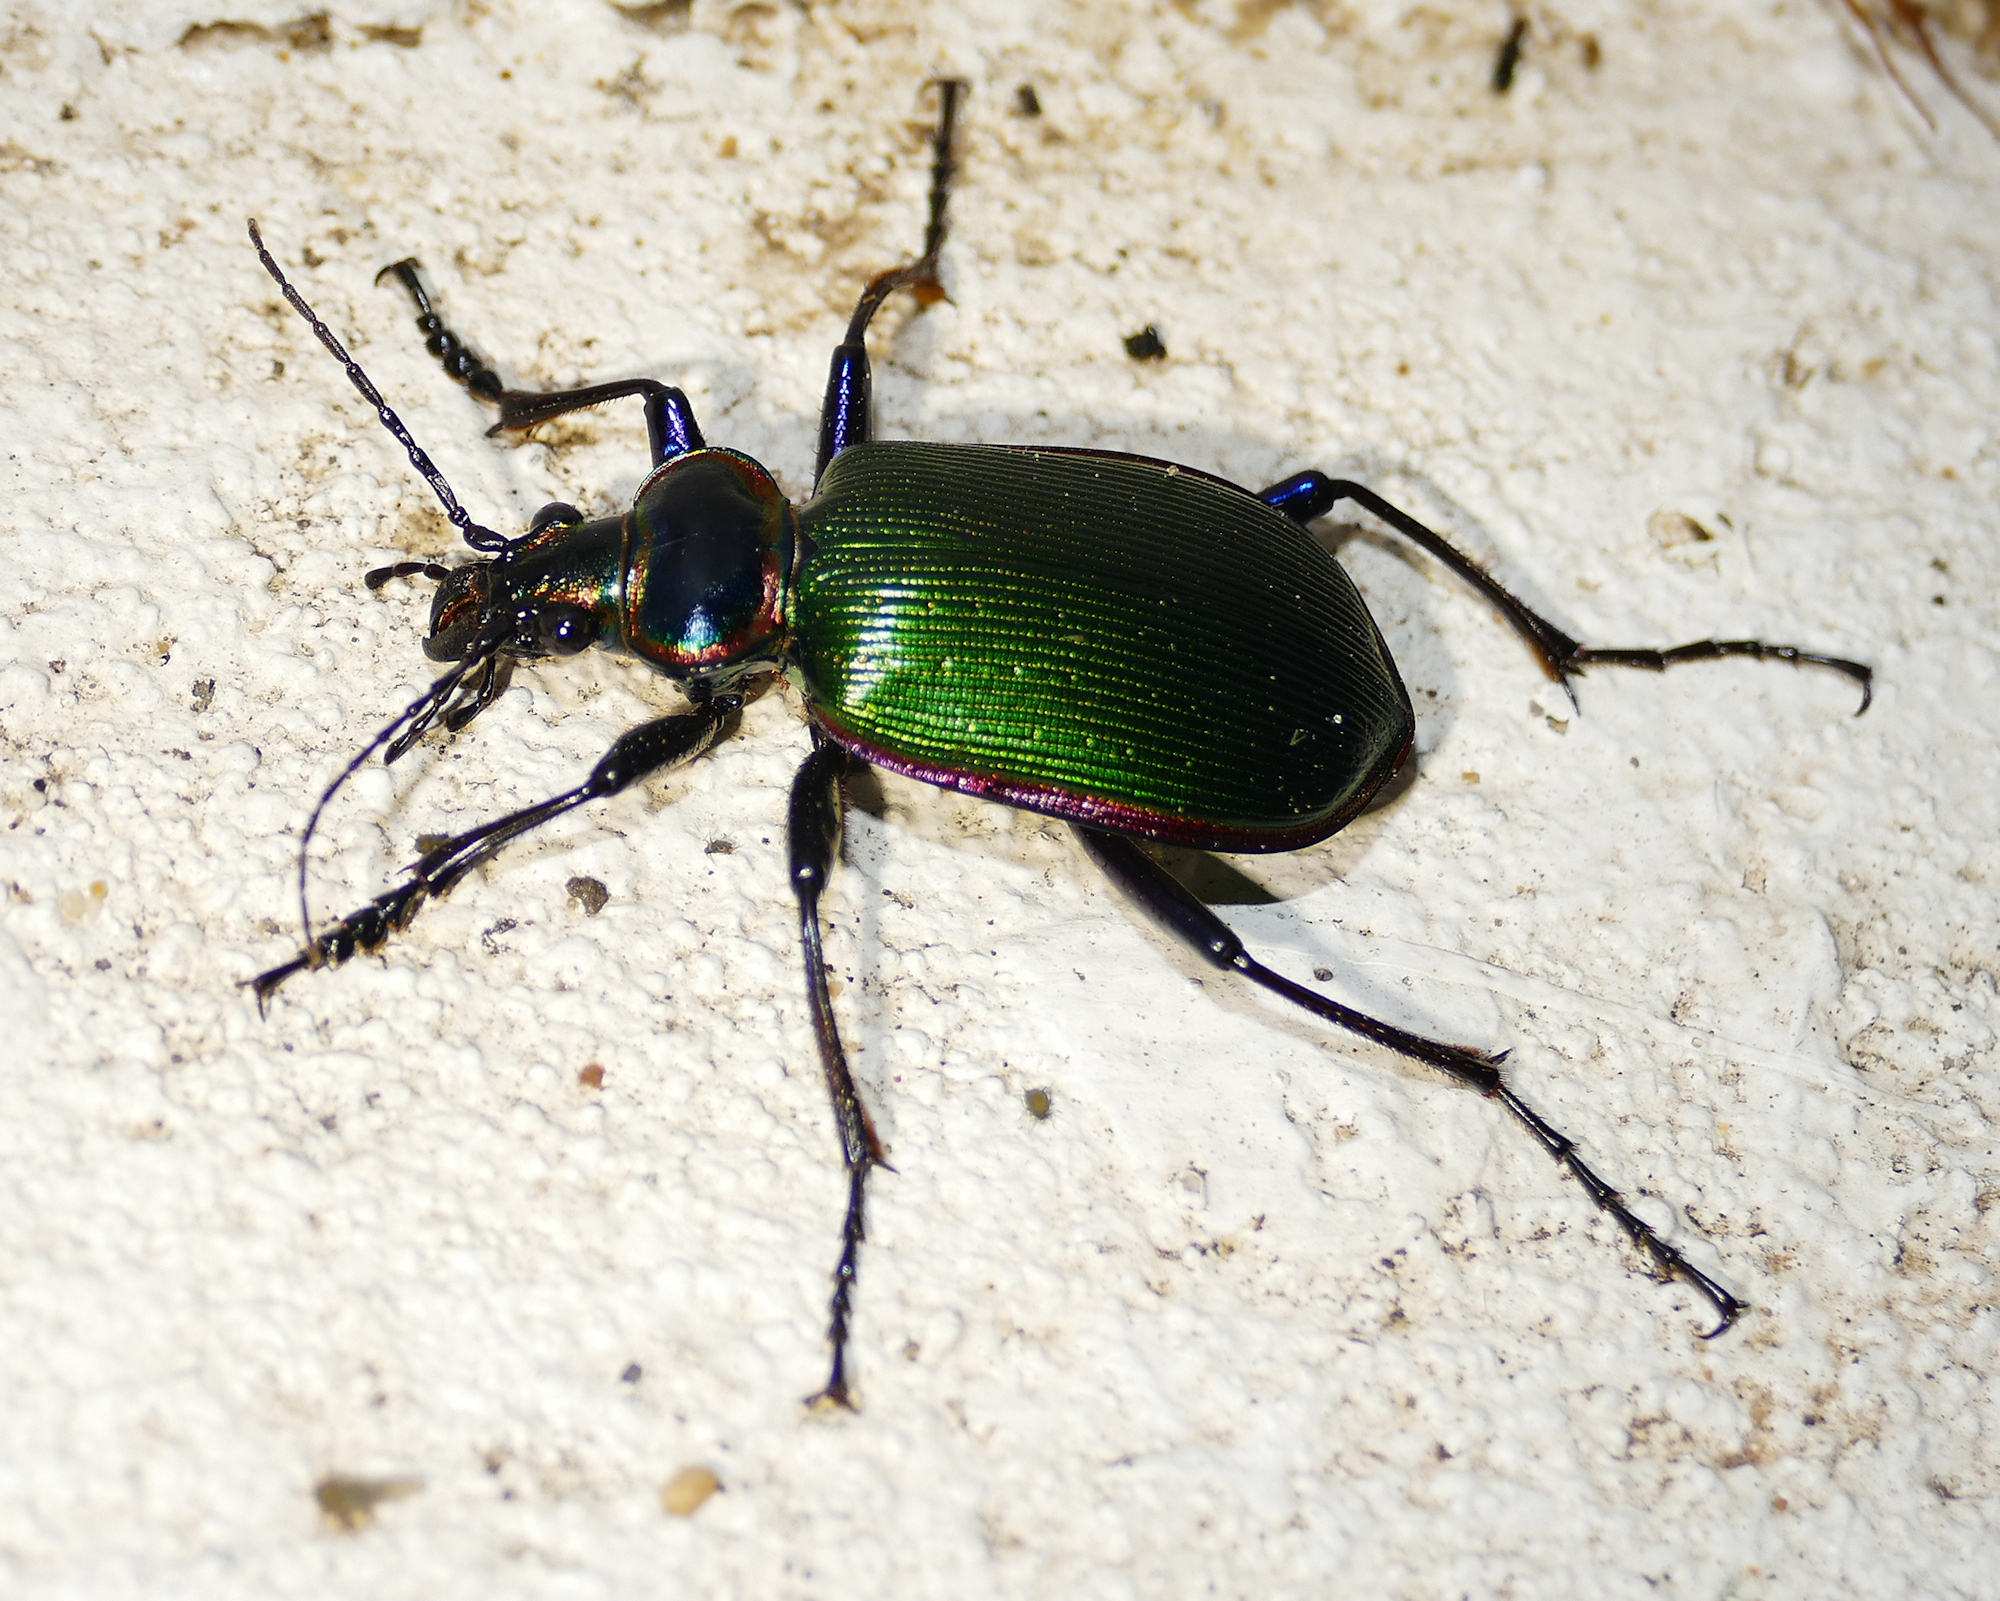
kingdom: Animalia
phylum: Arthropoda
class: Insecta
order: Coleoptera
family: Carabidae
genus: Calosoma
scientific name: Calosoma scrutator
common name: Fiery searcher beetle
